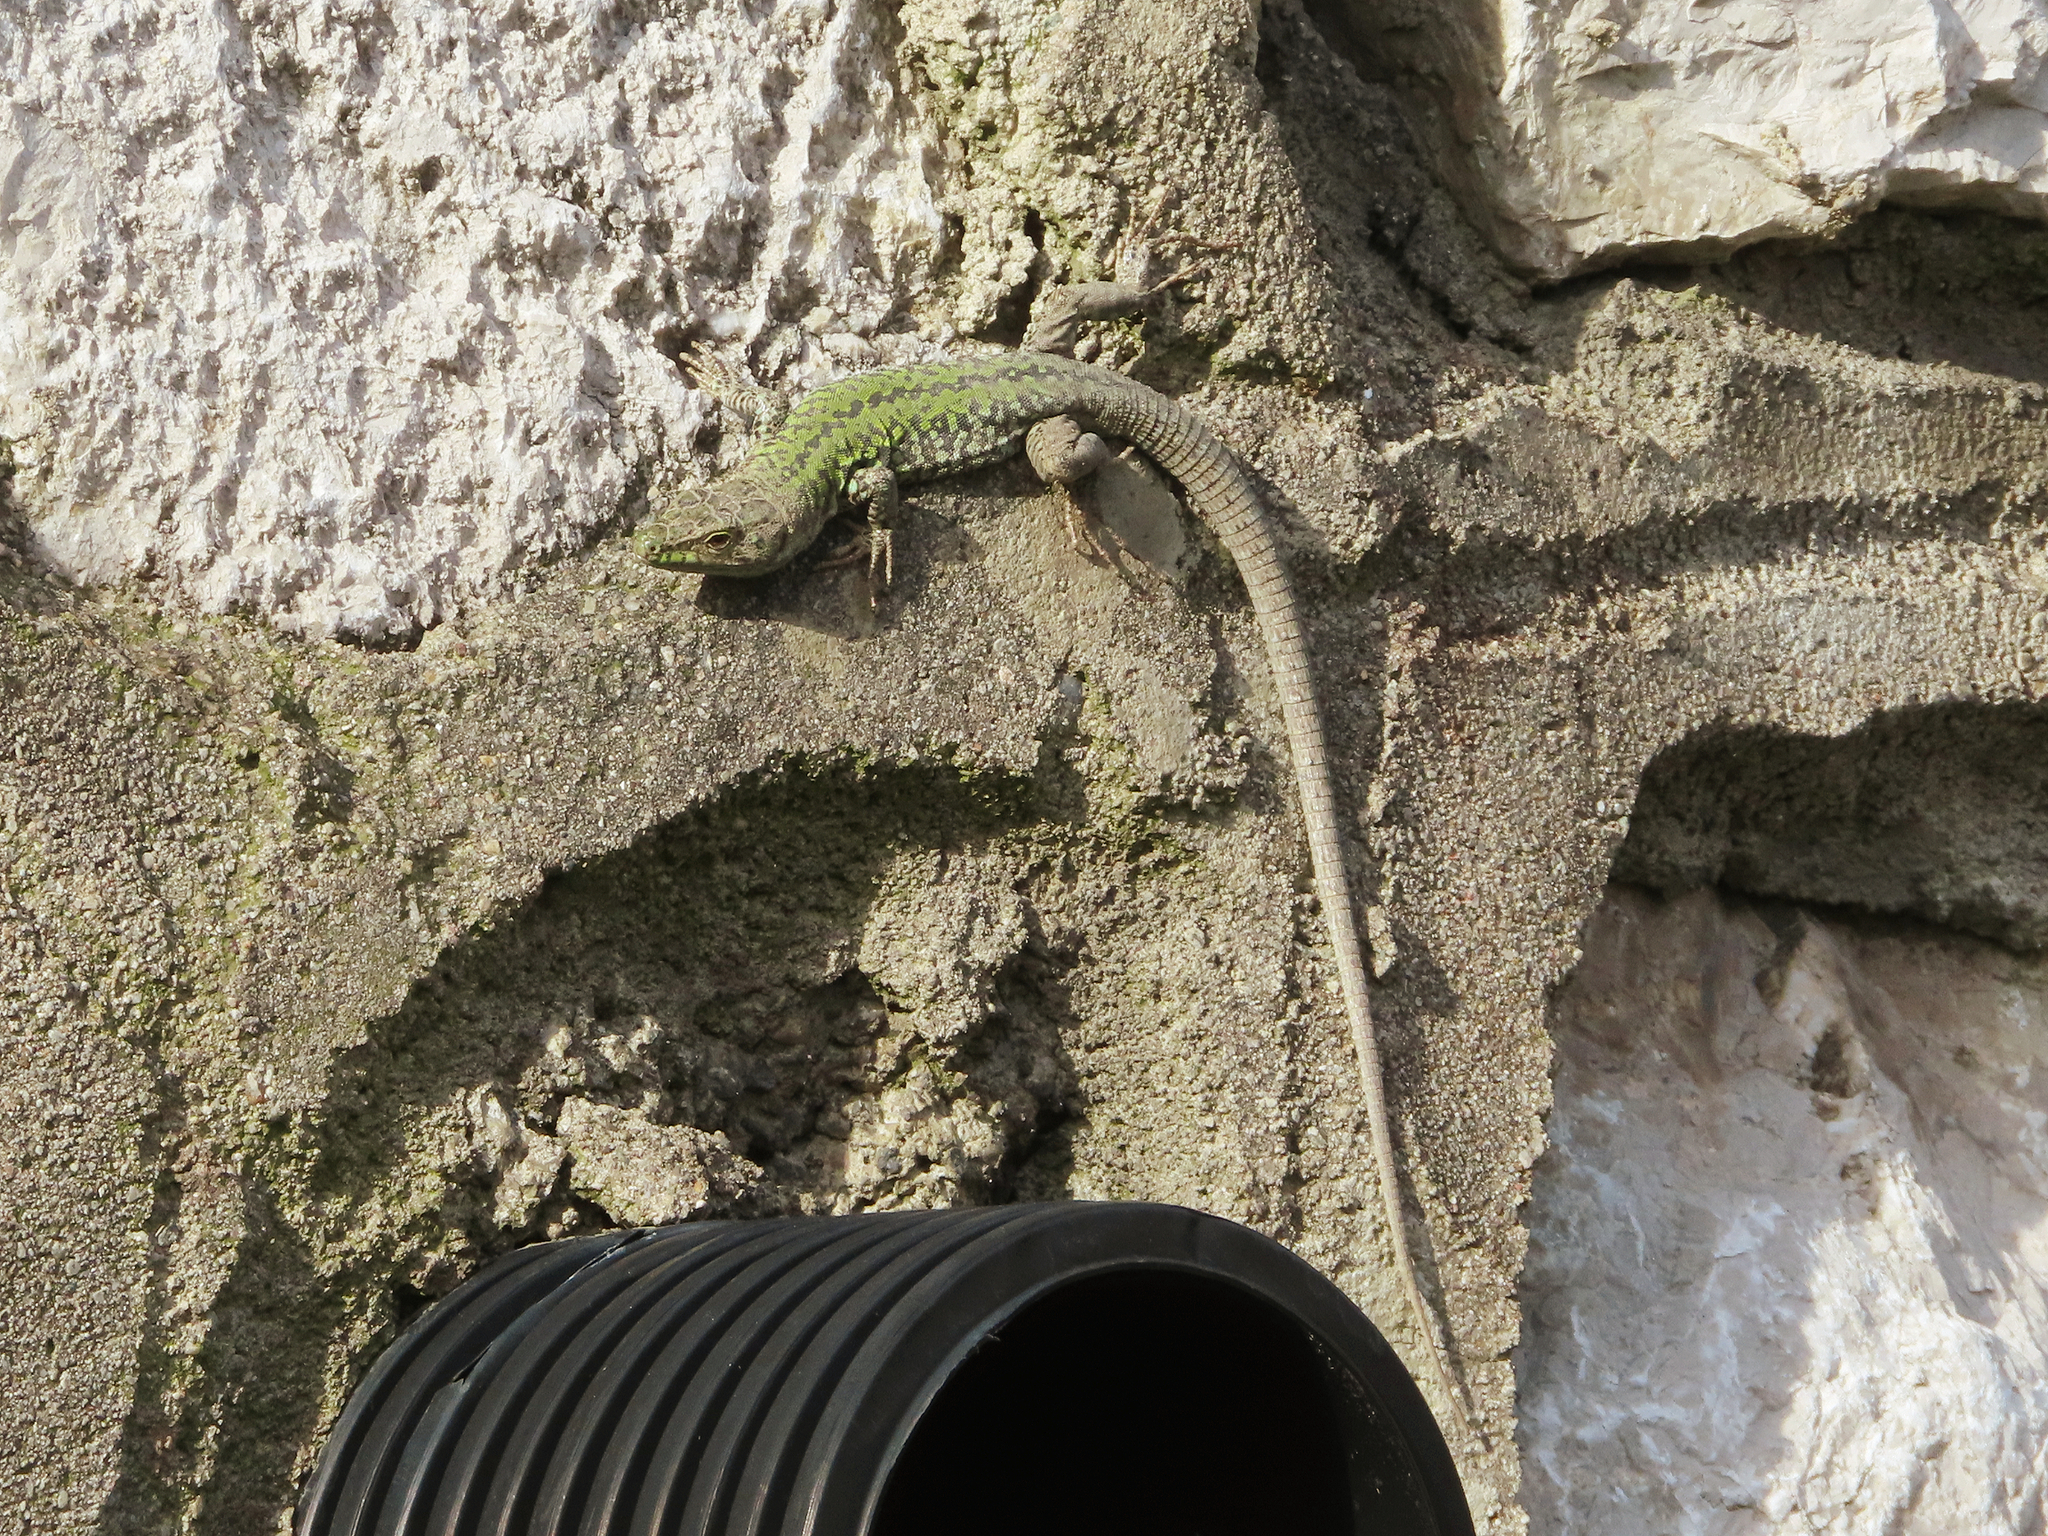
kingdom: Animalia
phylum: Chordata
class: Squamata
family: Lacertidae
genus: Podarcis
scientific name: Podarcis siculus
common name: Italian wall lizard
